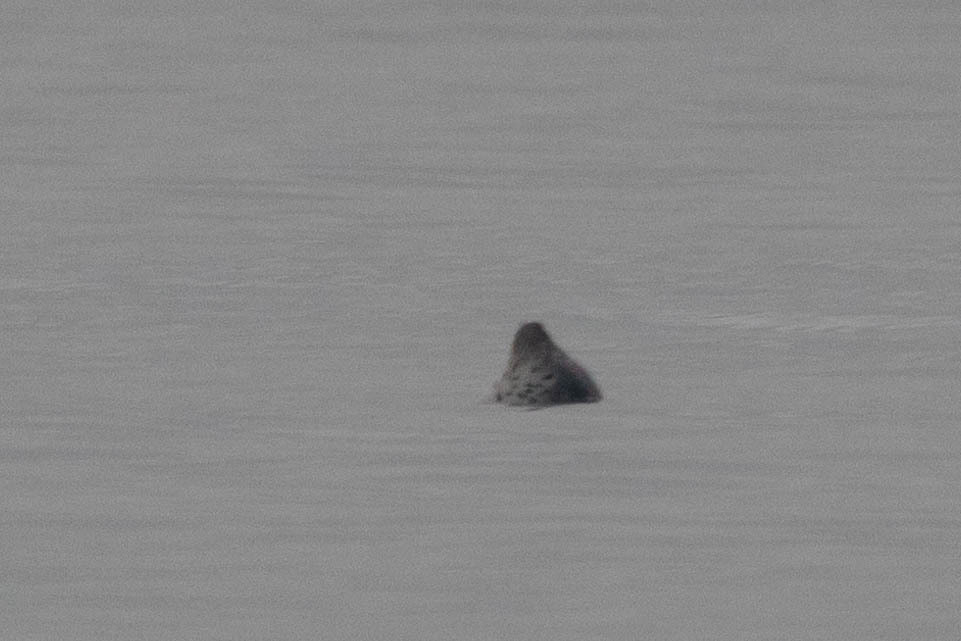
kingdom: Animalia
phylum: Chordata
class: Mammalia
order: Carnivora
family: Phocidae
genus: Phoca
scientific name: Phoca vitulina
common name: Harbor seal
